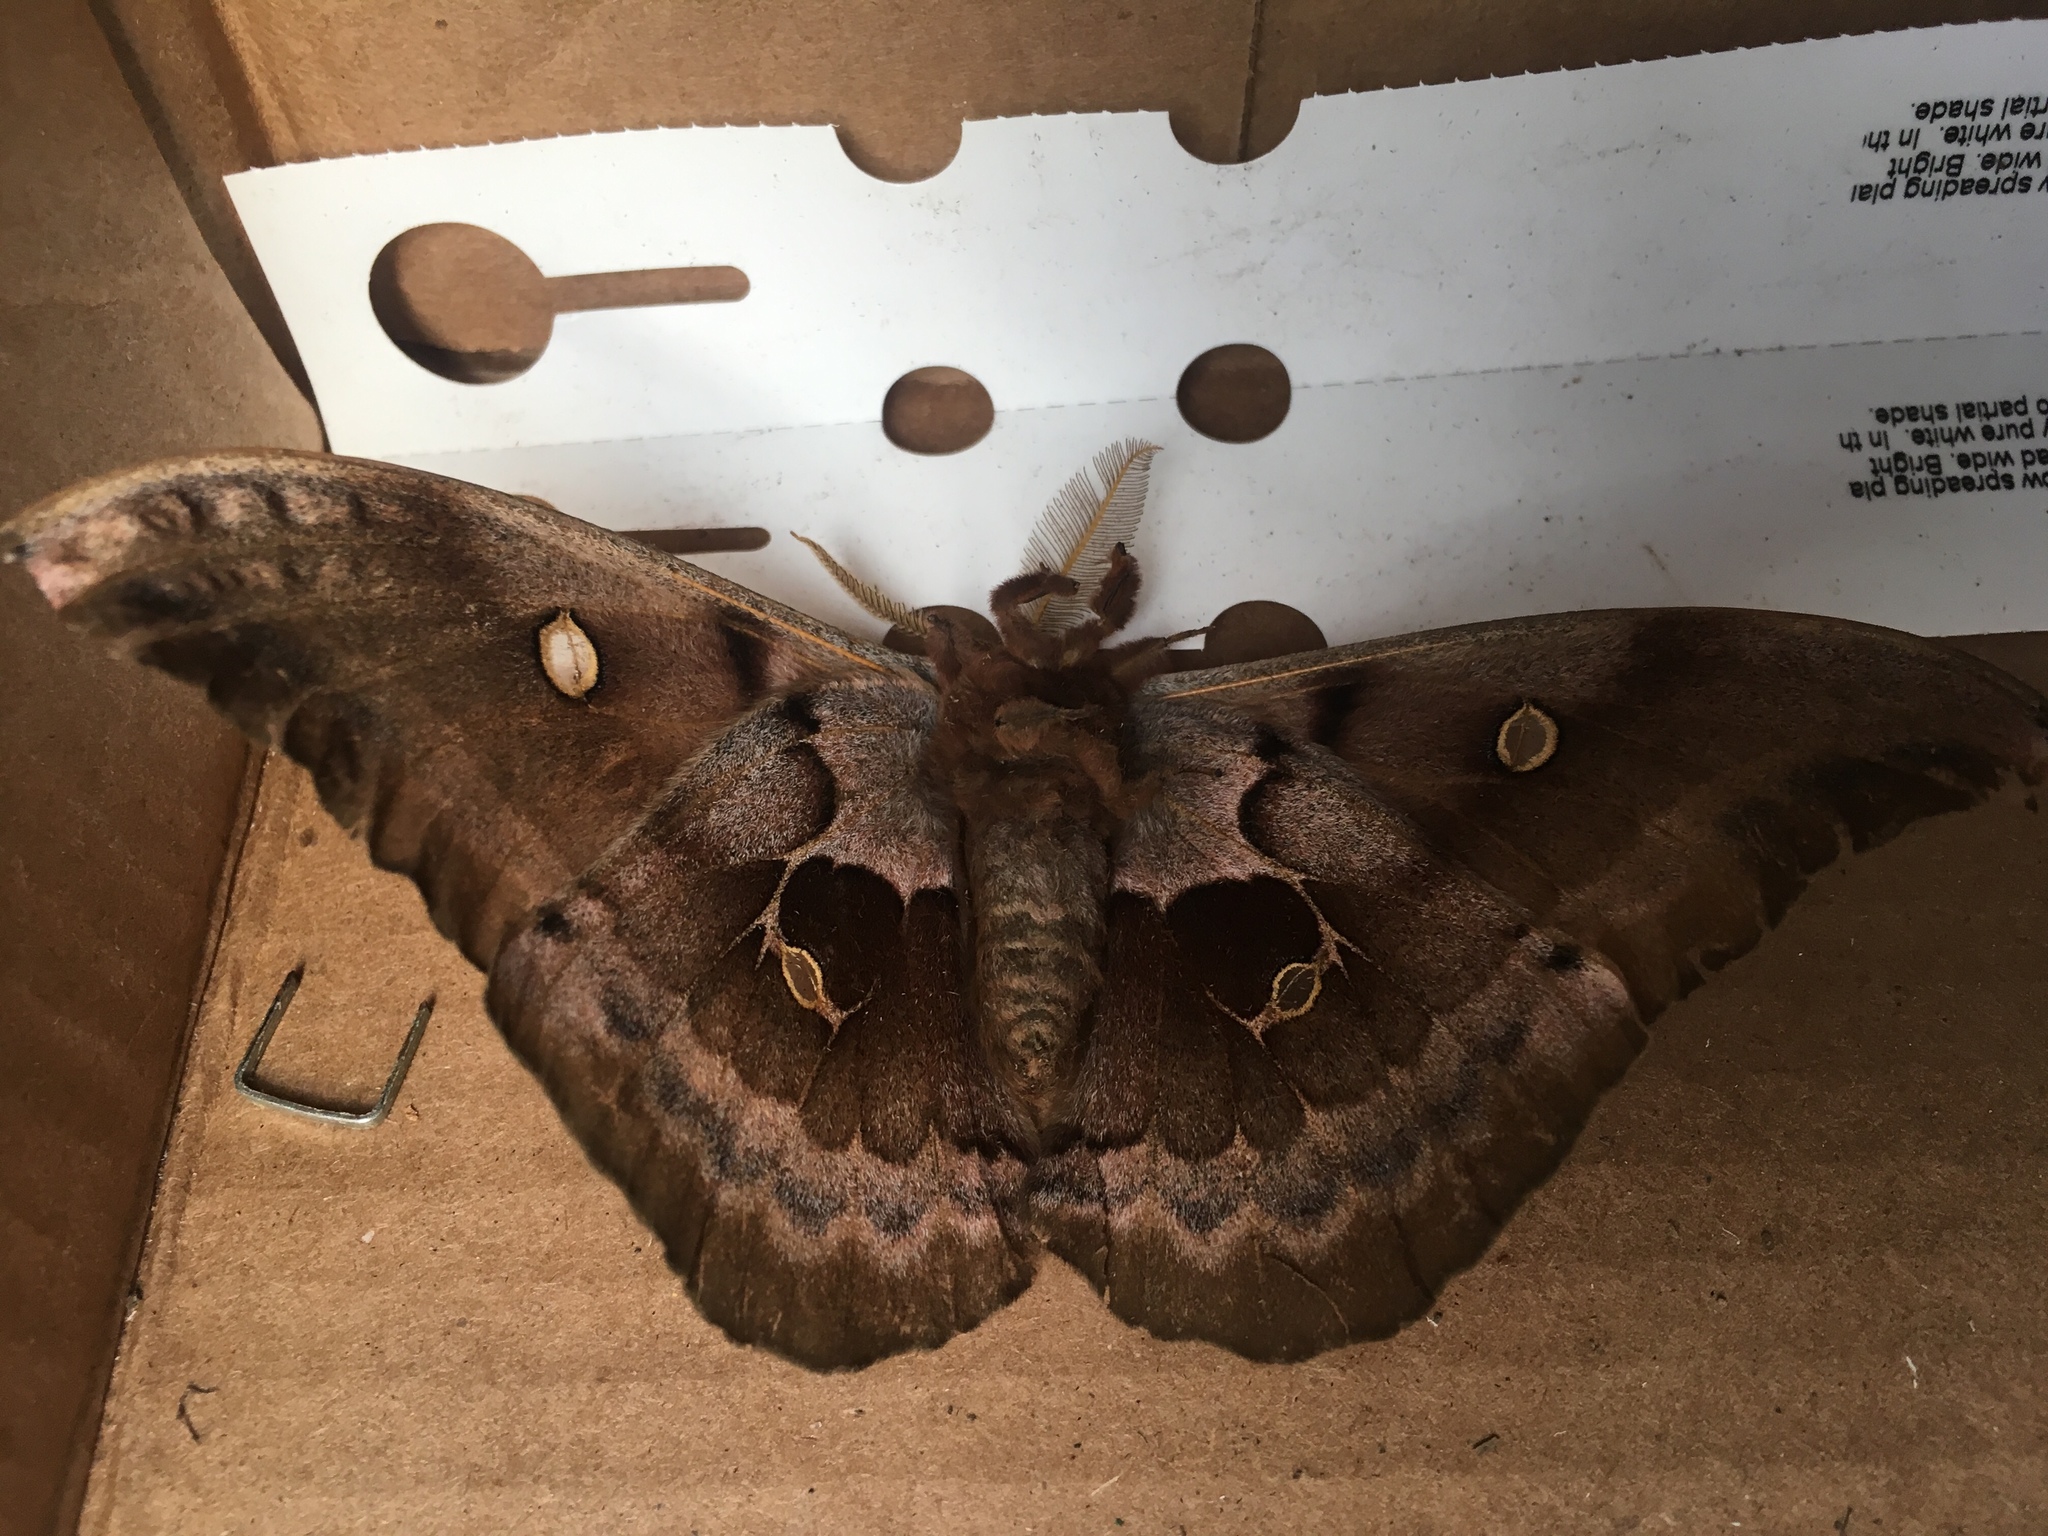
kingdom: Animalia
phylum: Arthropoda
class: Insecta
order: Lepidoptera
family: Saturniidae
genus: Antheraea
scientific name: Antheraea polyphemus
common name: Polyphemus moth
